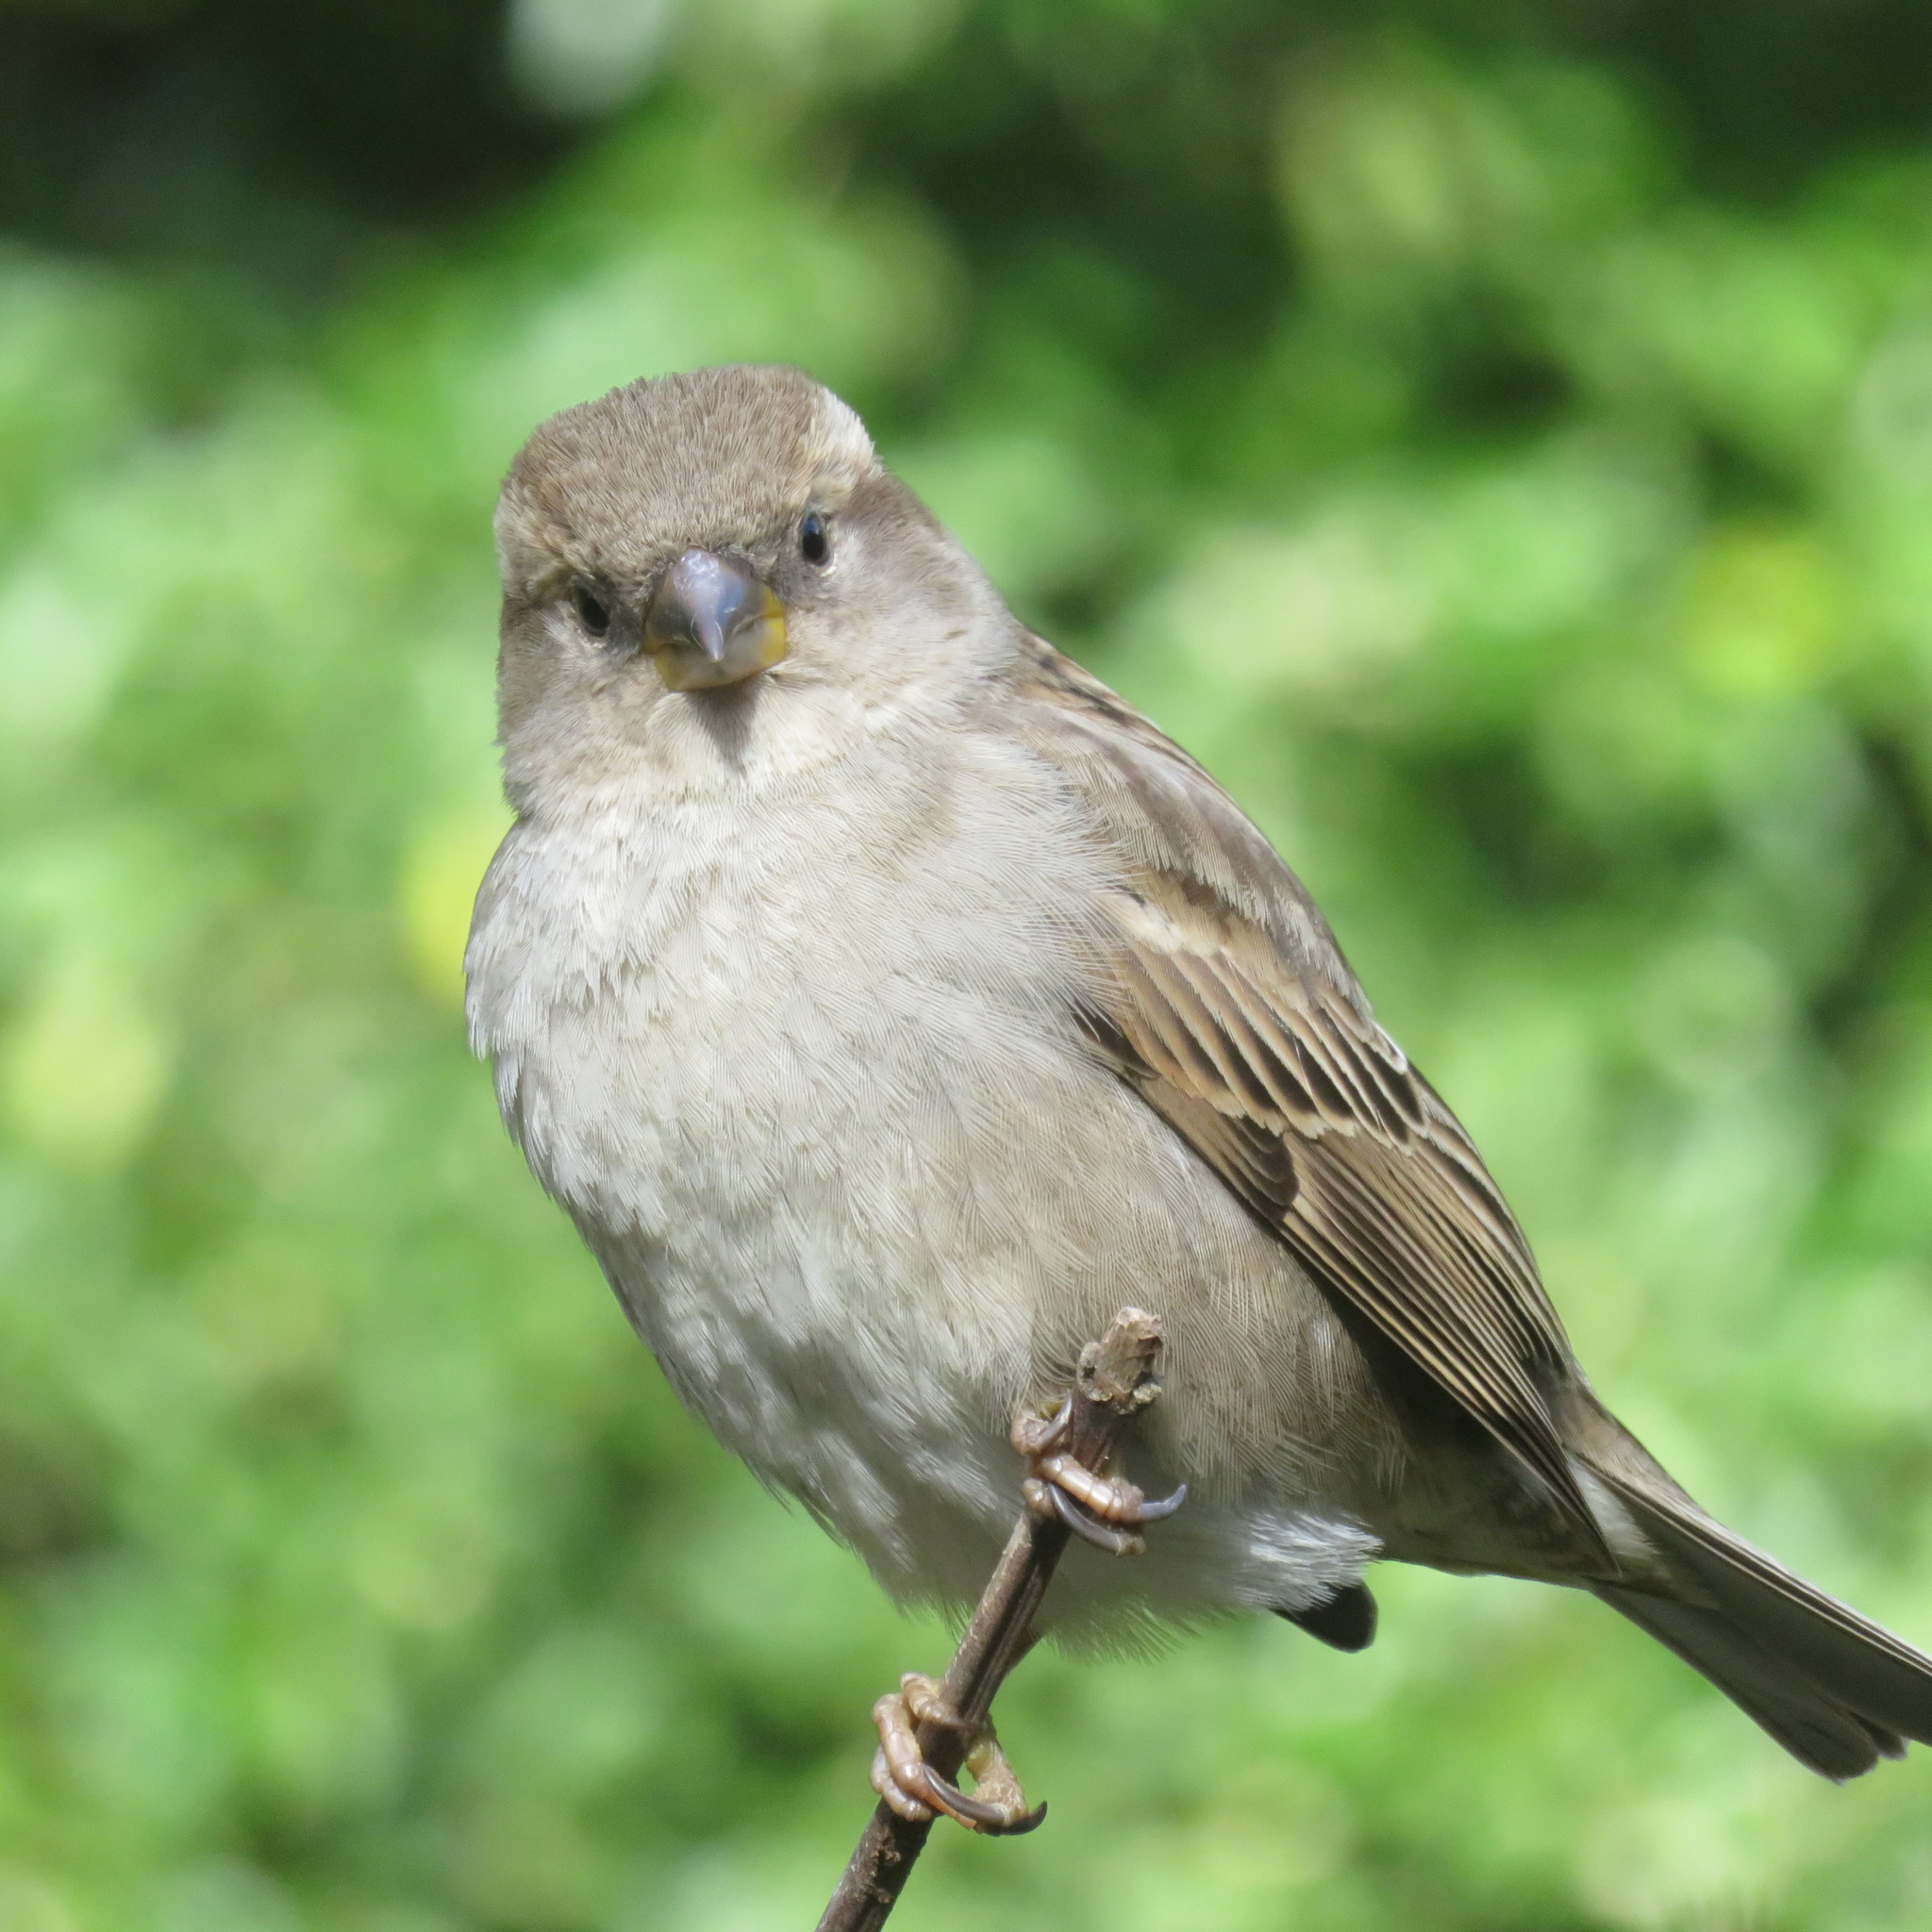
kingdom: Animalia
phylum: Chordata
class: Aves
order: Passeriformes
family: Passeridae
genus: Passer
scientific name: Passer domesticus
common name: House sparrow
